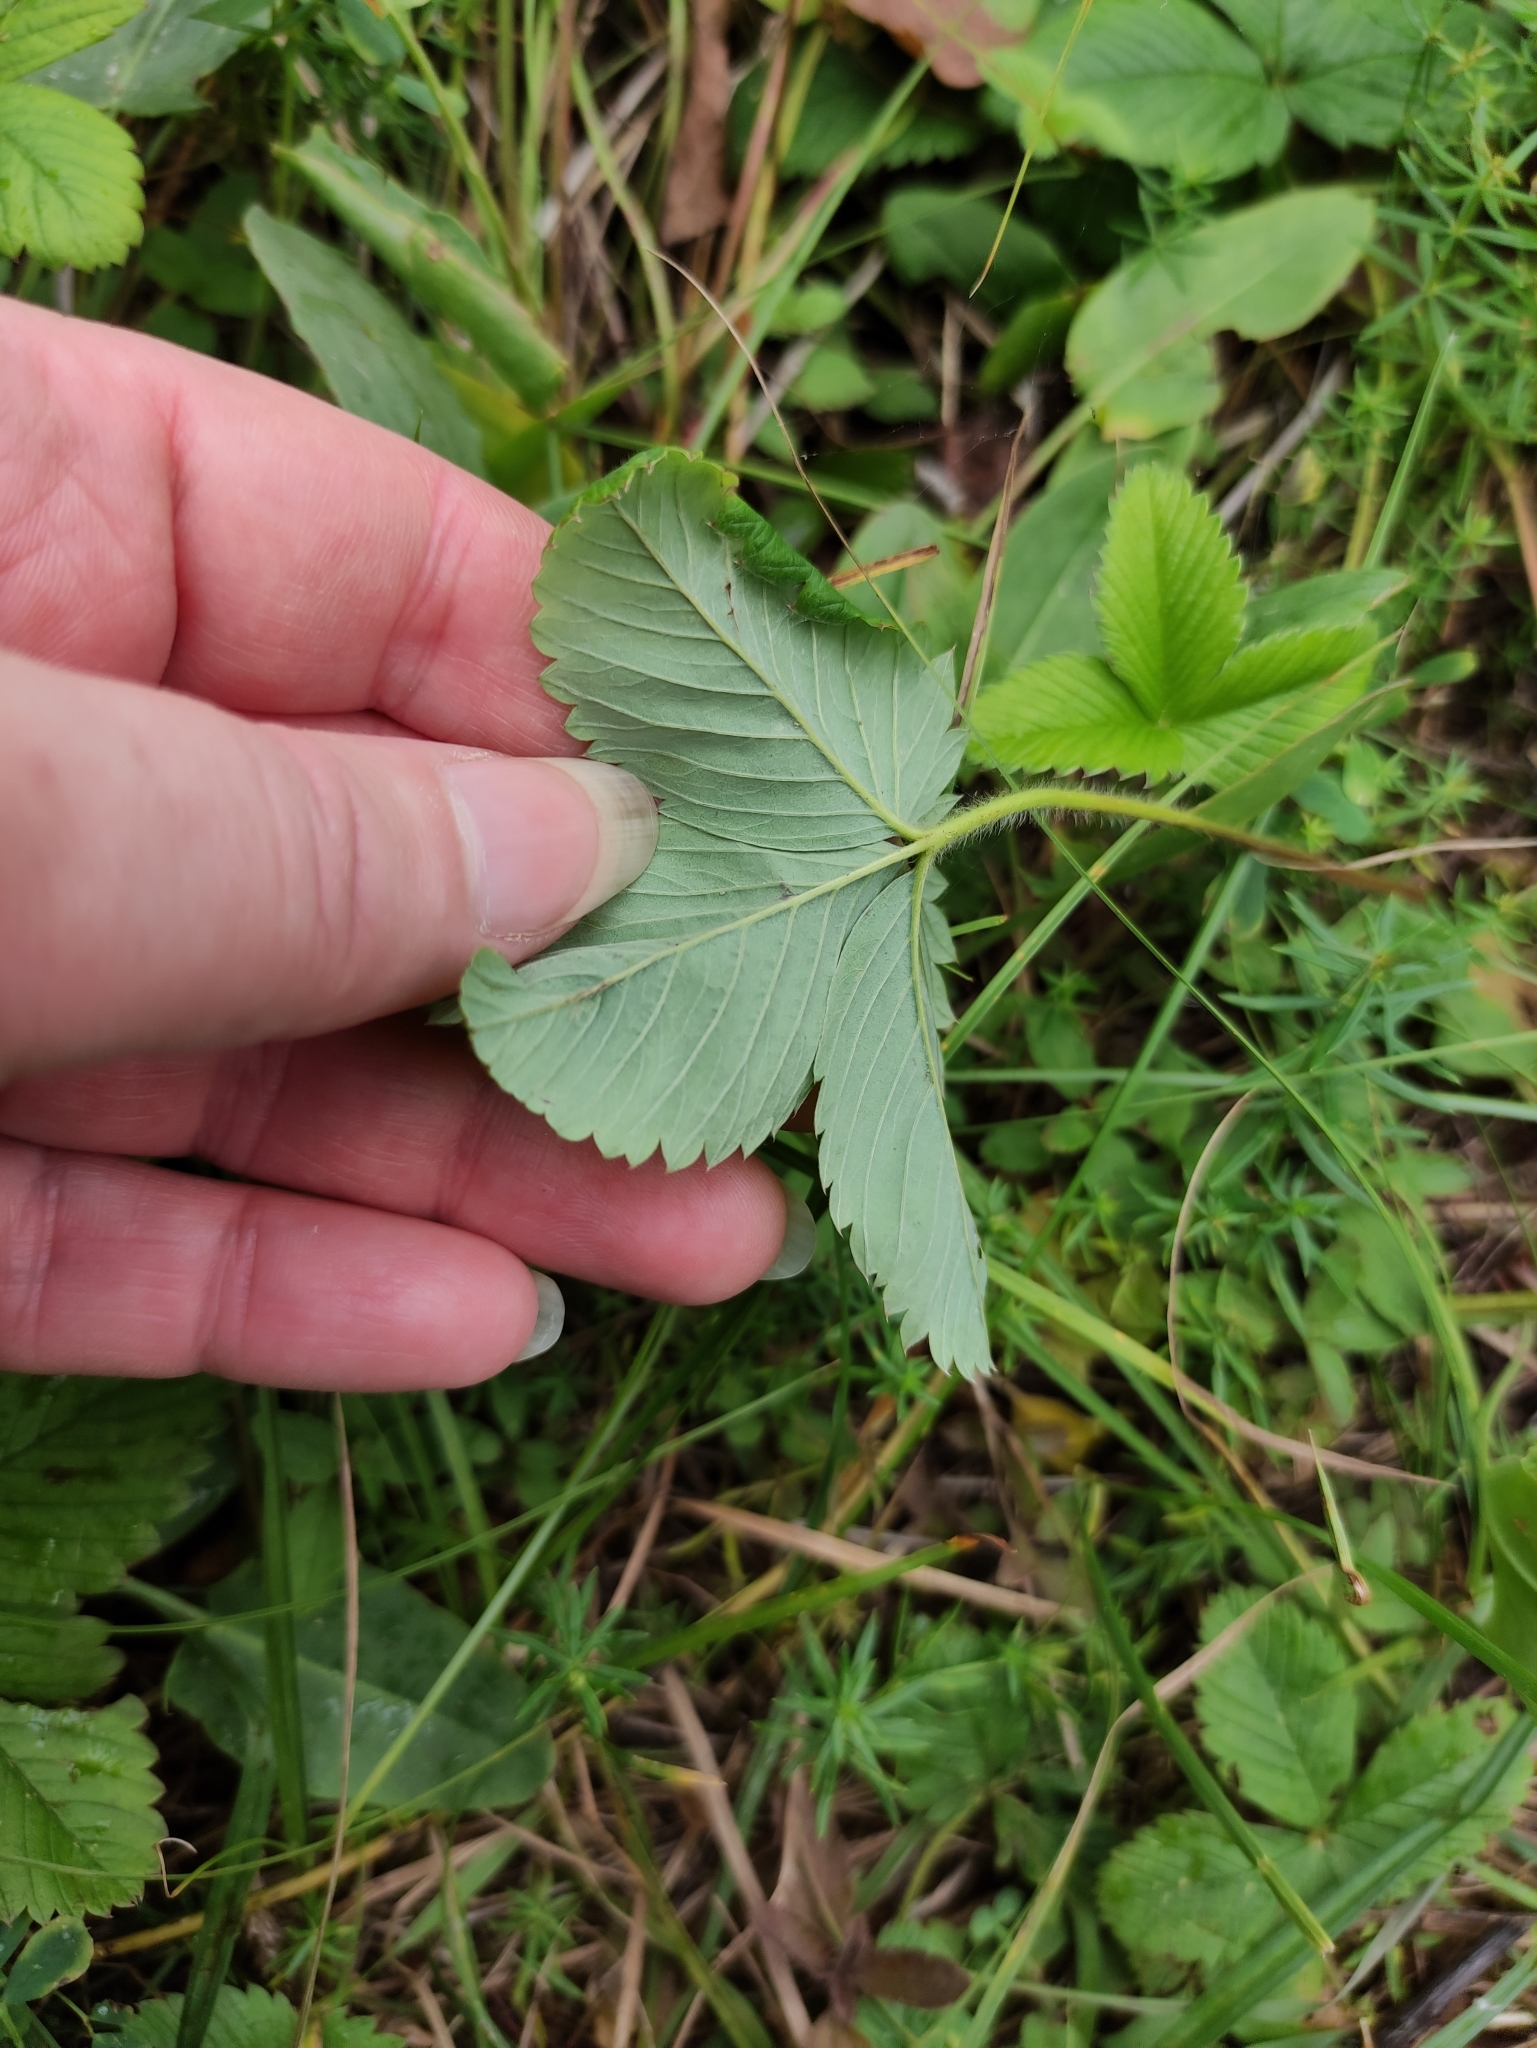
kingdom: Plantae
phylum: Tracheophyta
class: Magnoliopsida
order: Rosales
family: Rosaceae
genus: Fragaria
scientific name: Fragaria viridis
